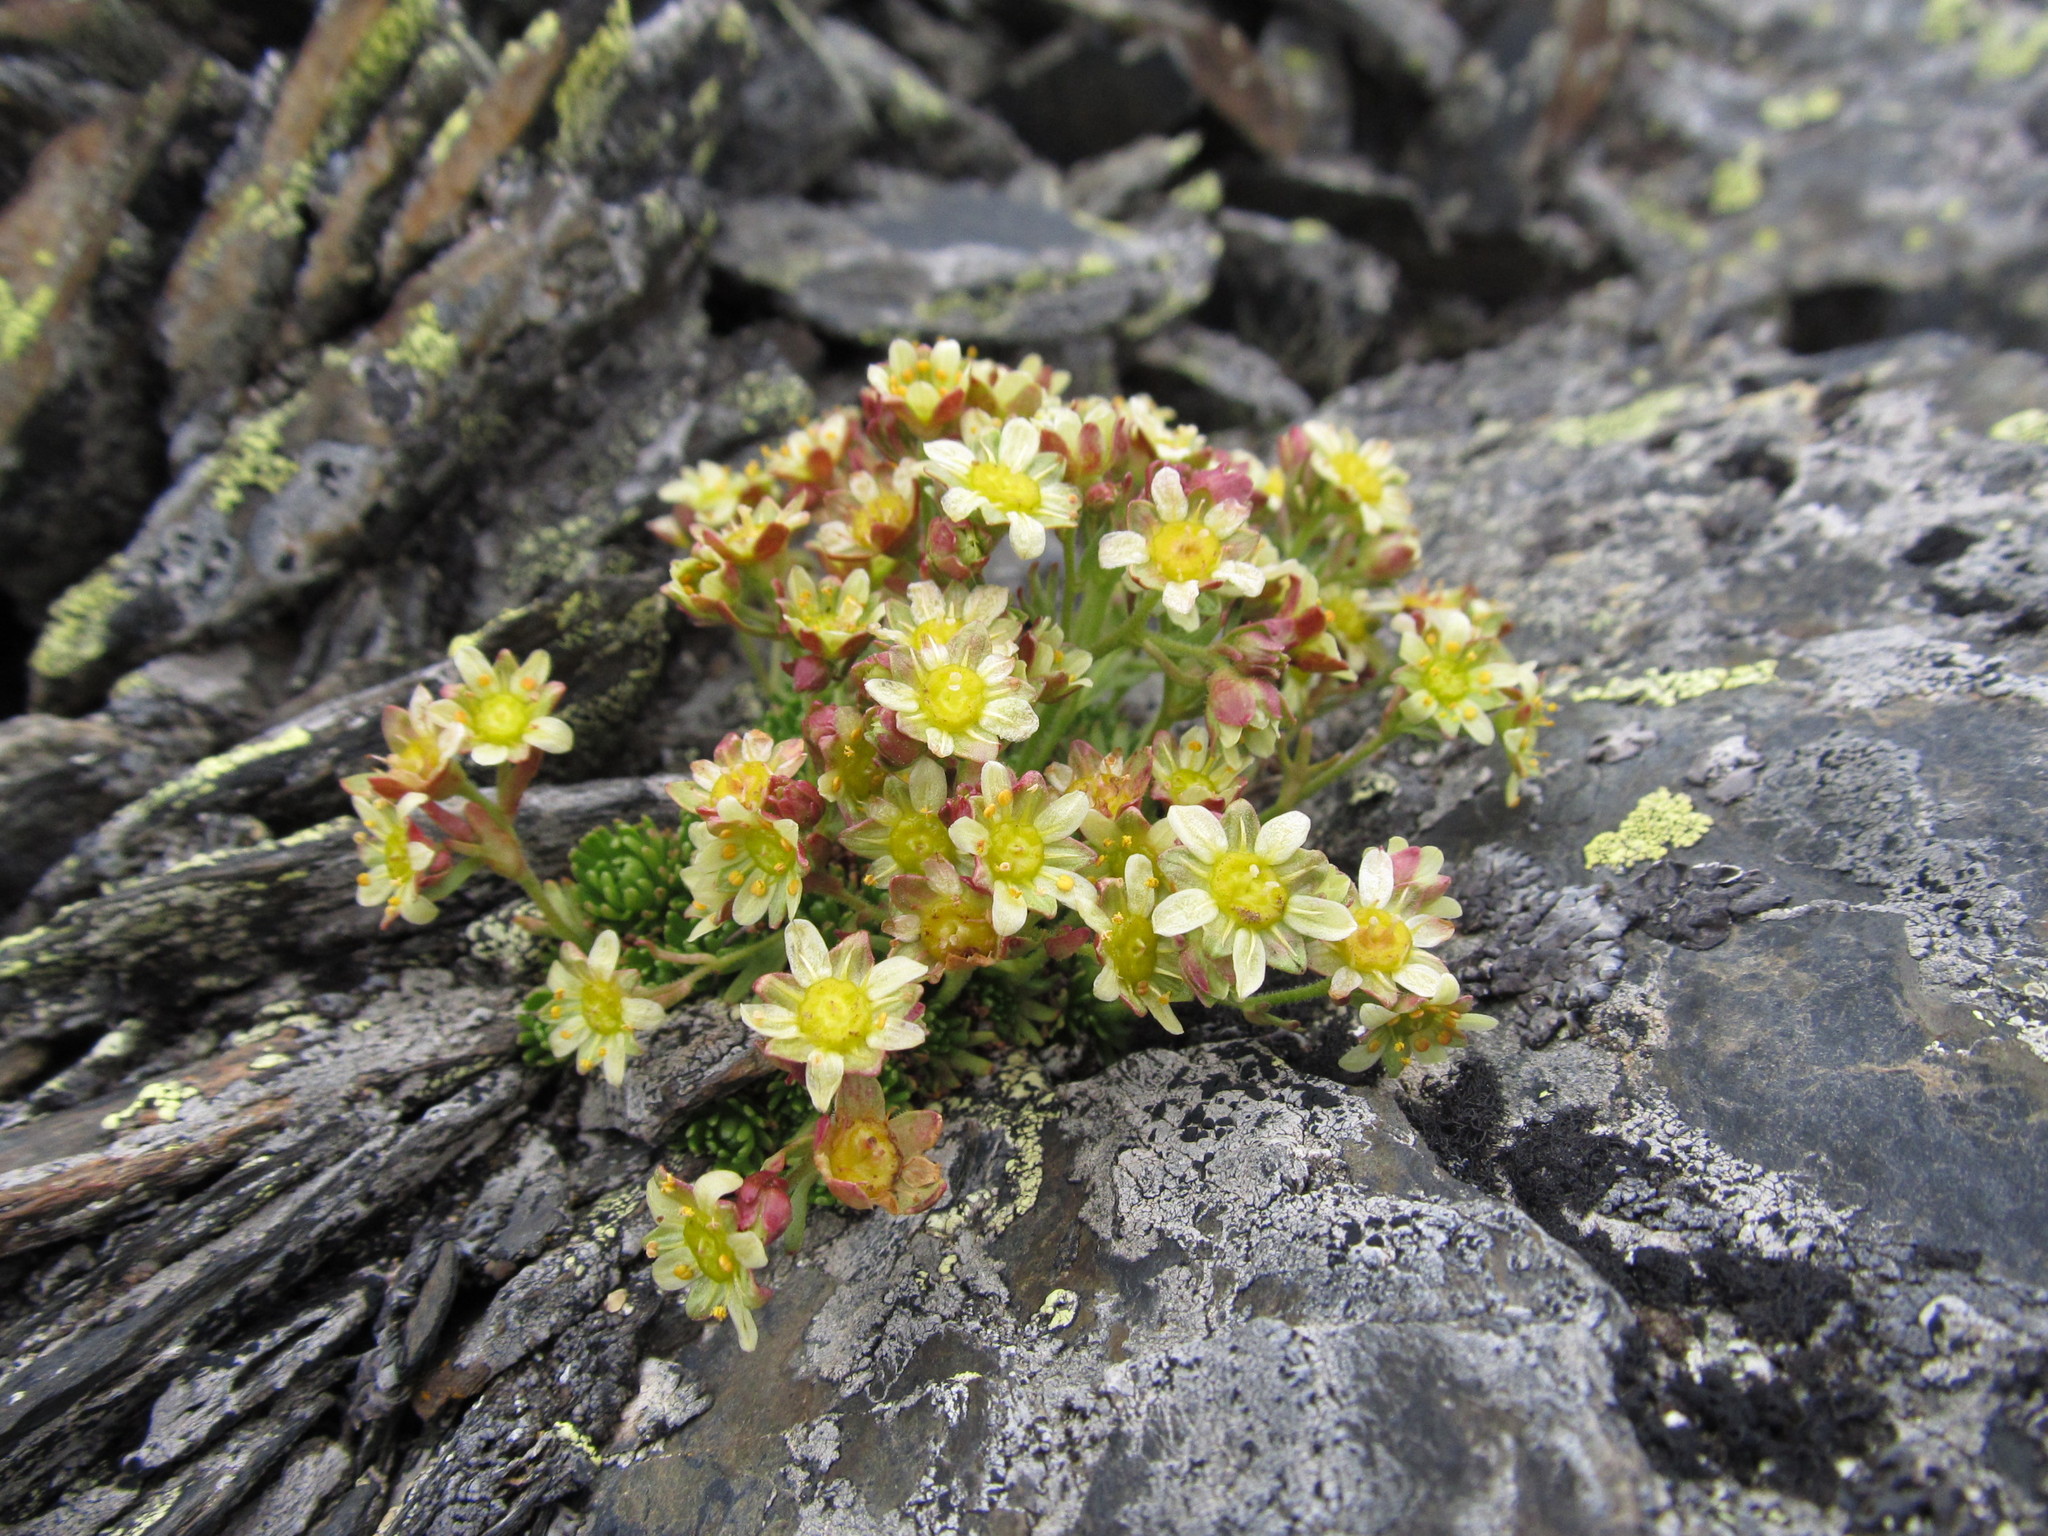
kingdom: Plantae
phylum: Tracheophyta
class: Magnoliopsida
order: Saxifragales
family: Saxifragaceae
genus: Saxifraga
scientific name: Saxifraga moschata
